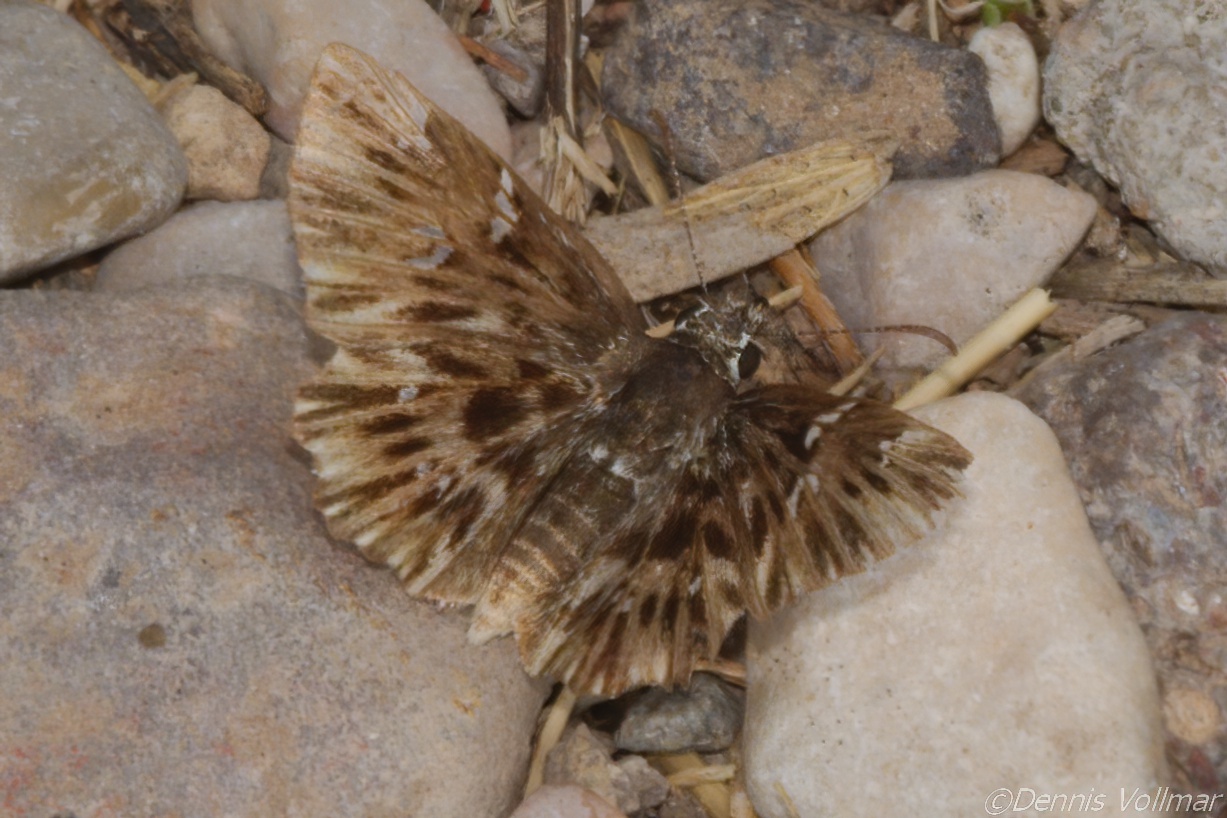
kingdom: Animalia
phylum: Arthropoda
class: Insecta
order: Lepidoptera
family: Hesperiidae
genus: Celotes
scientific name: Celotes limpia
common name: Scarce streaky-skipper
